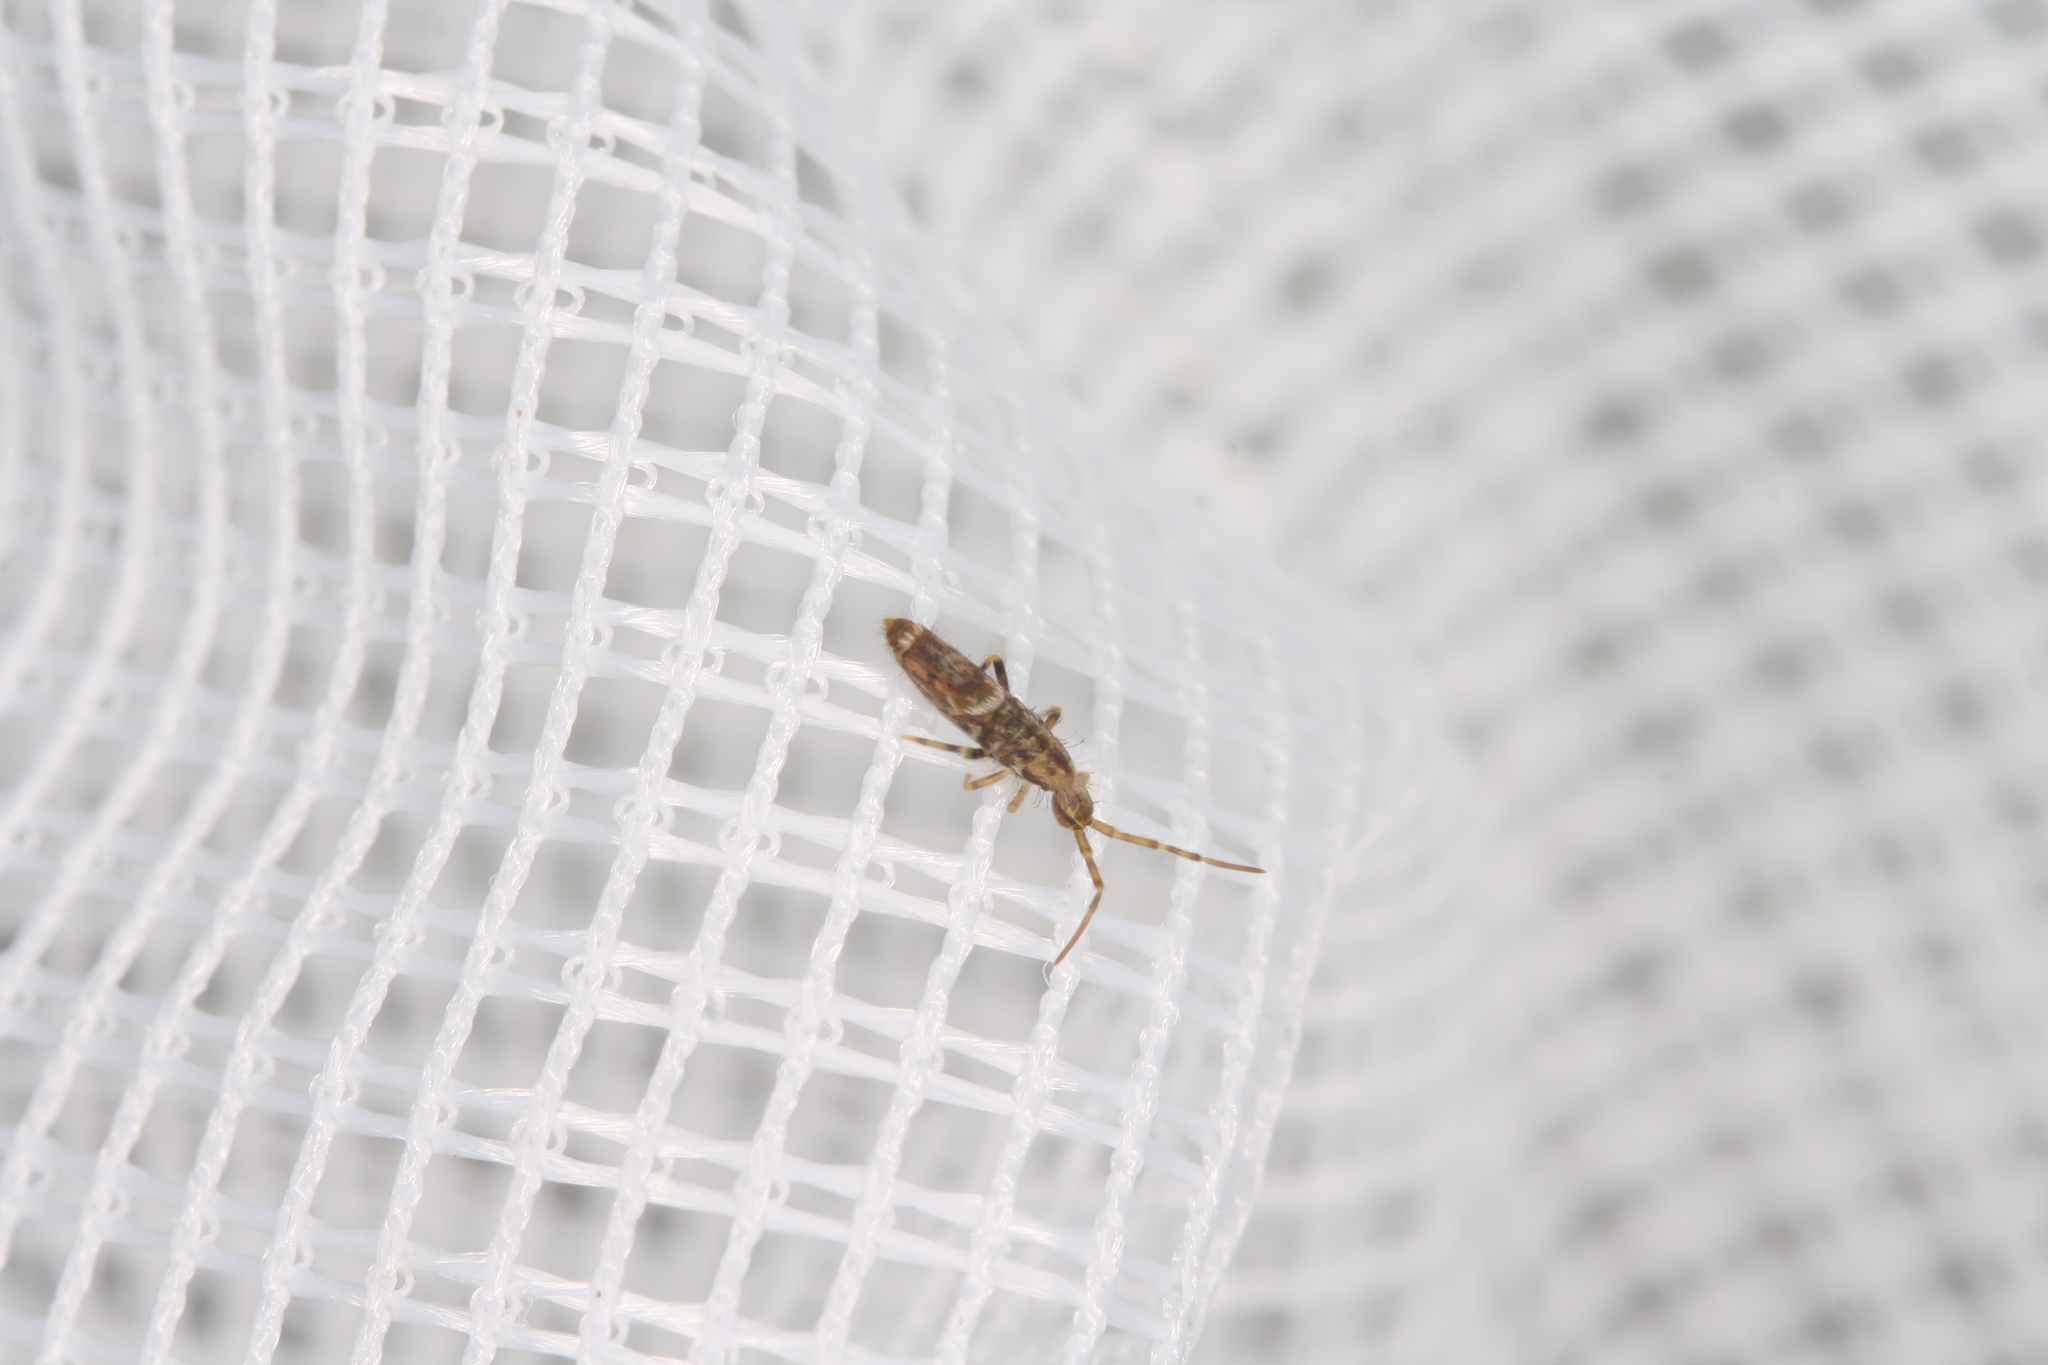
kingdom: Animalia
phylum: Arthropoda
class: Collembola
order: Entomobryomorpha
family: Entomobryidae
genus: Entomobrya
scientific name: Entomobrya dorsalis
